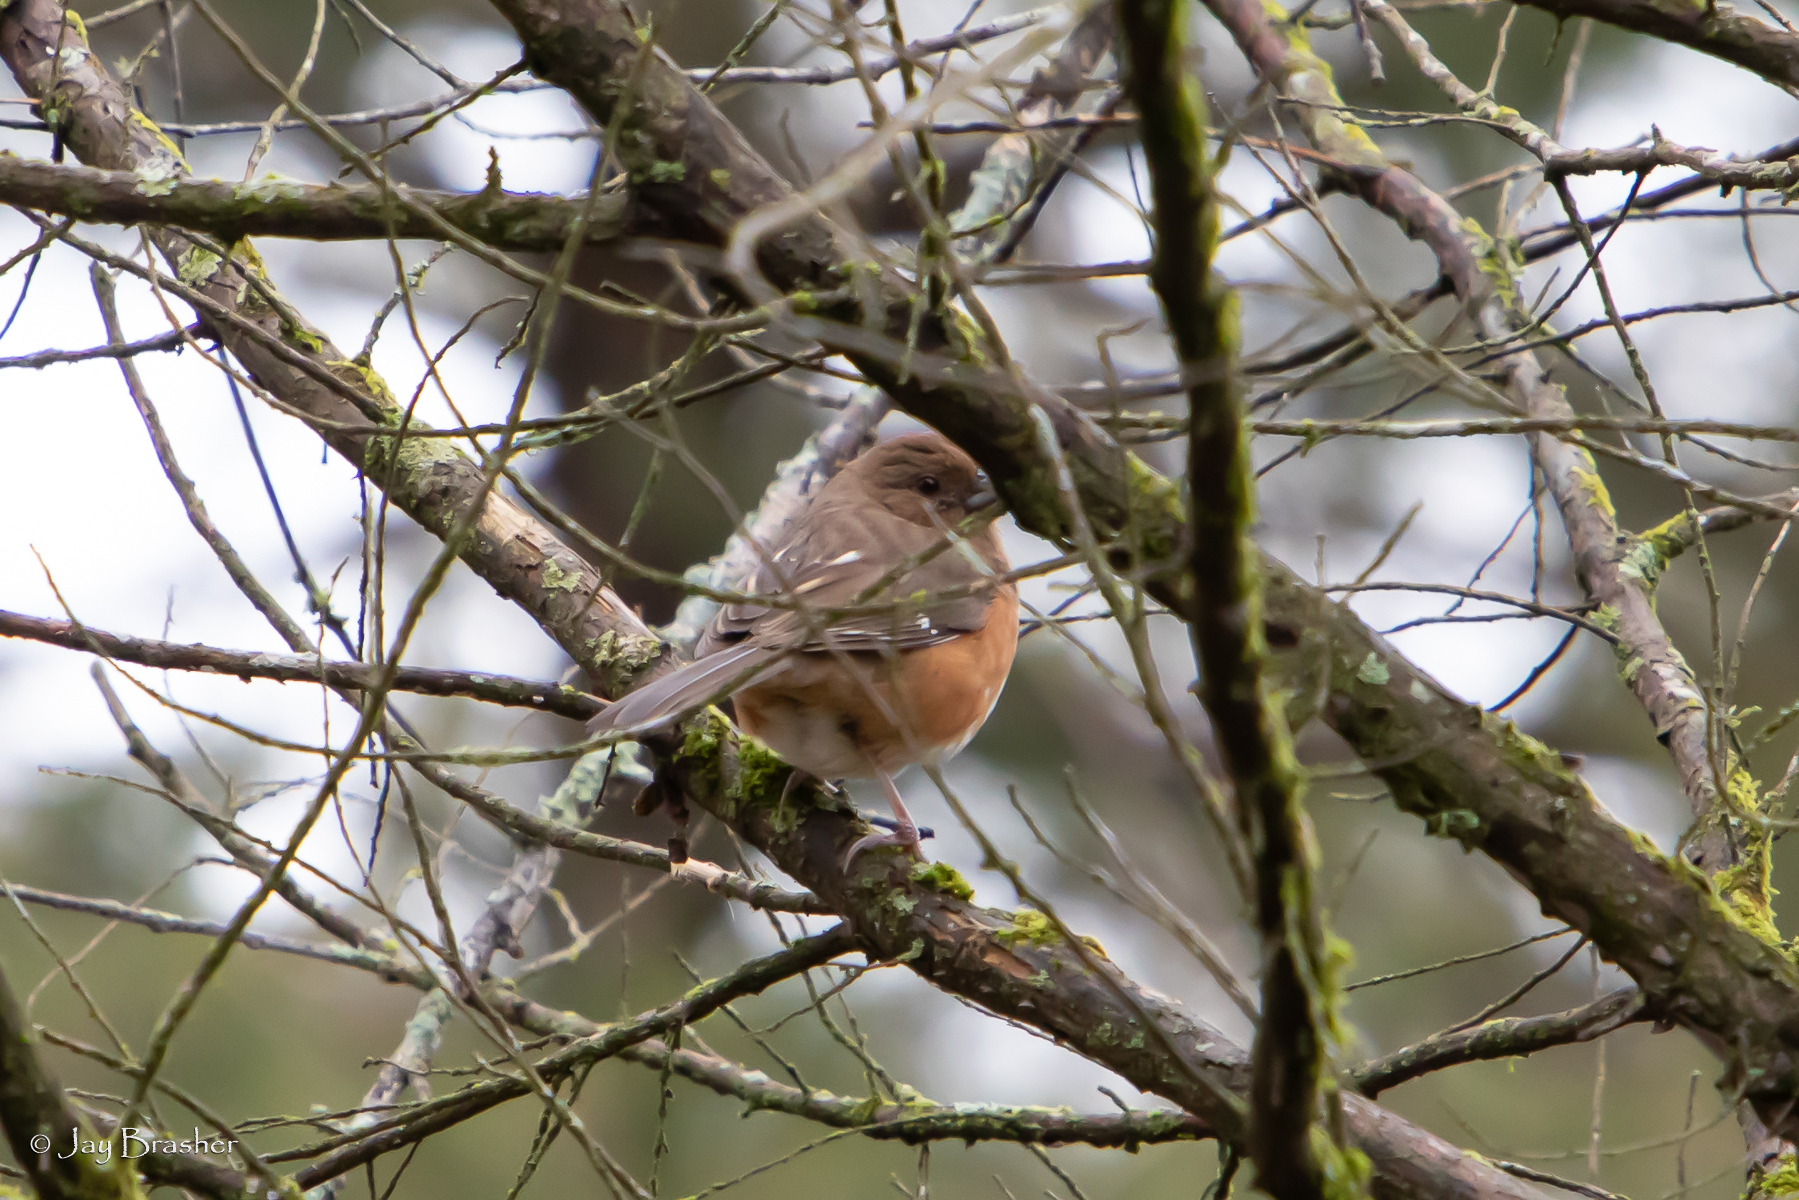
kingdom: Animalia
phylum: Chordata
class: Aves
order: Passeriformes
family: Passerellidae
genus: Pipilo
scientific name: Pipilo erythrophthalmus
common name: Eastern towhee
